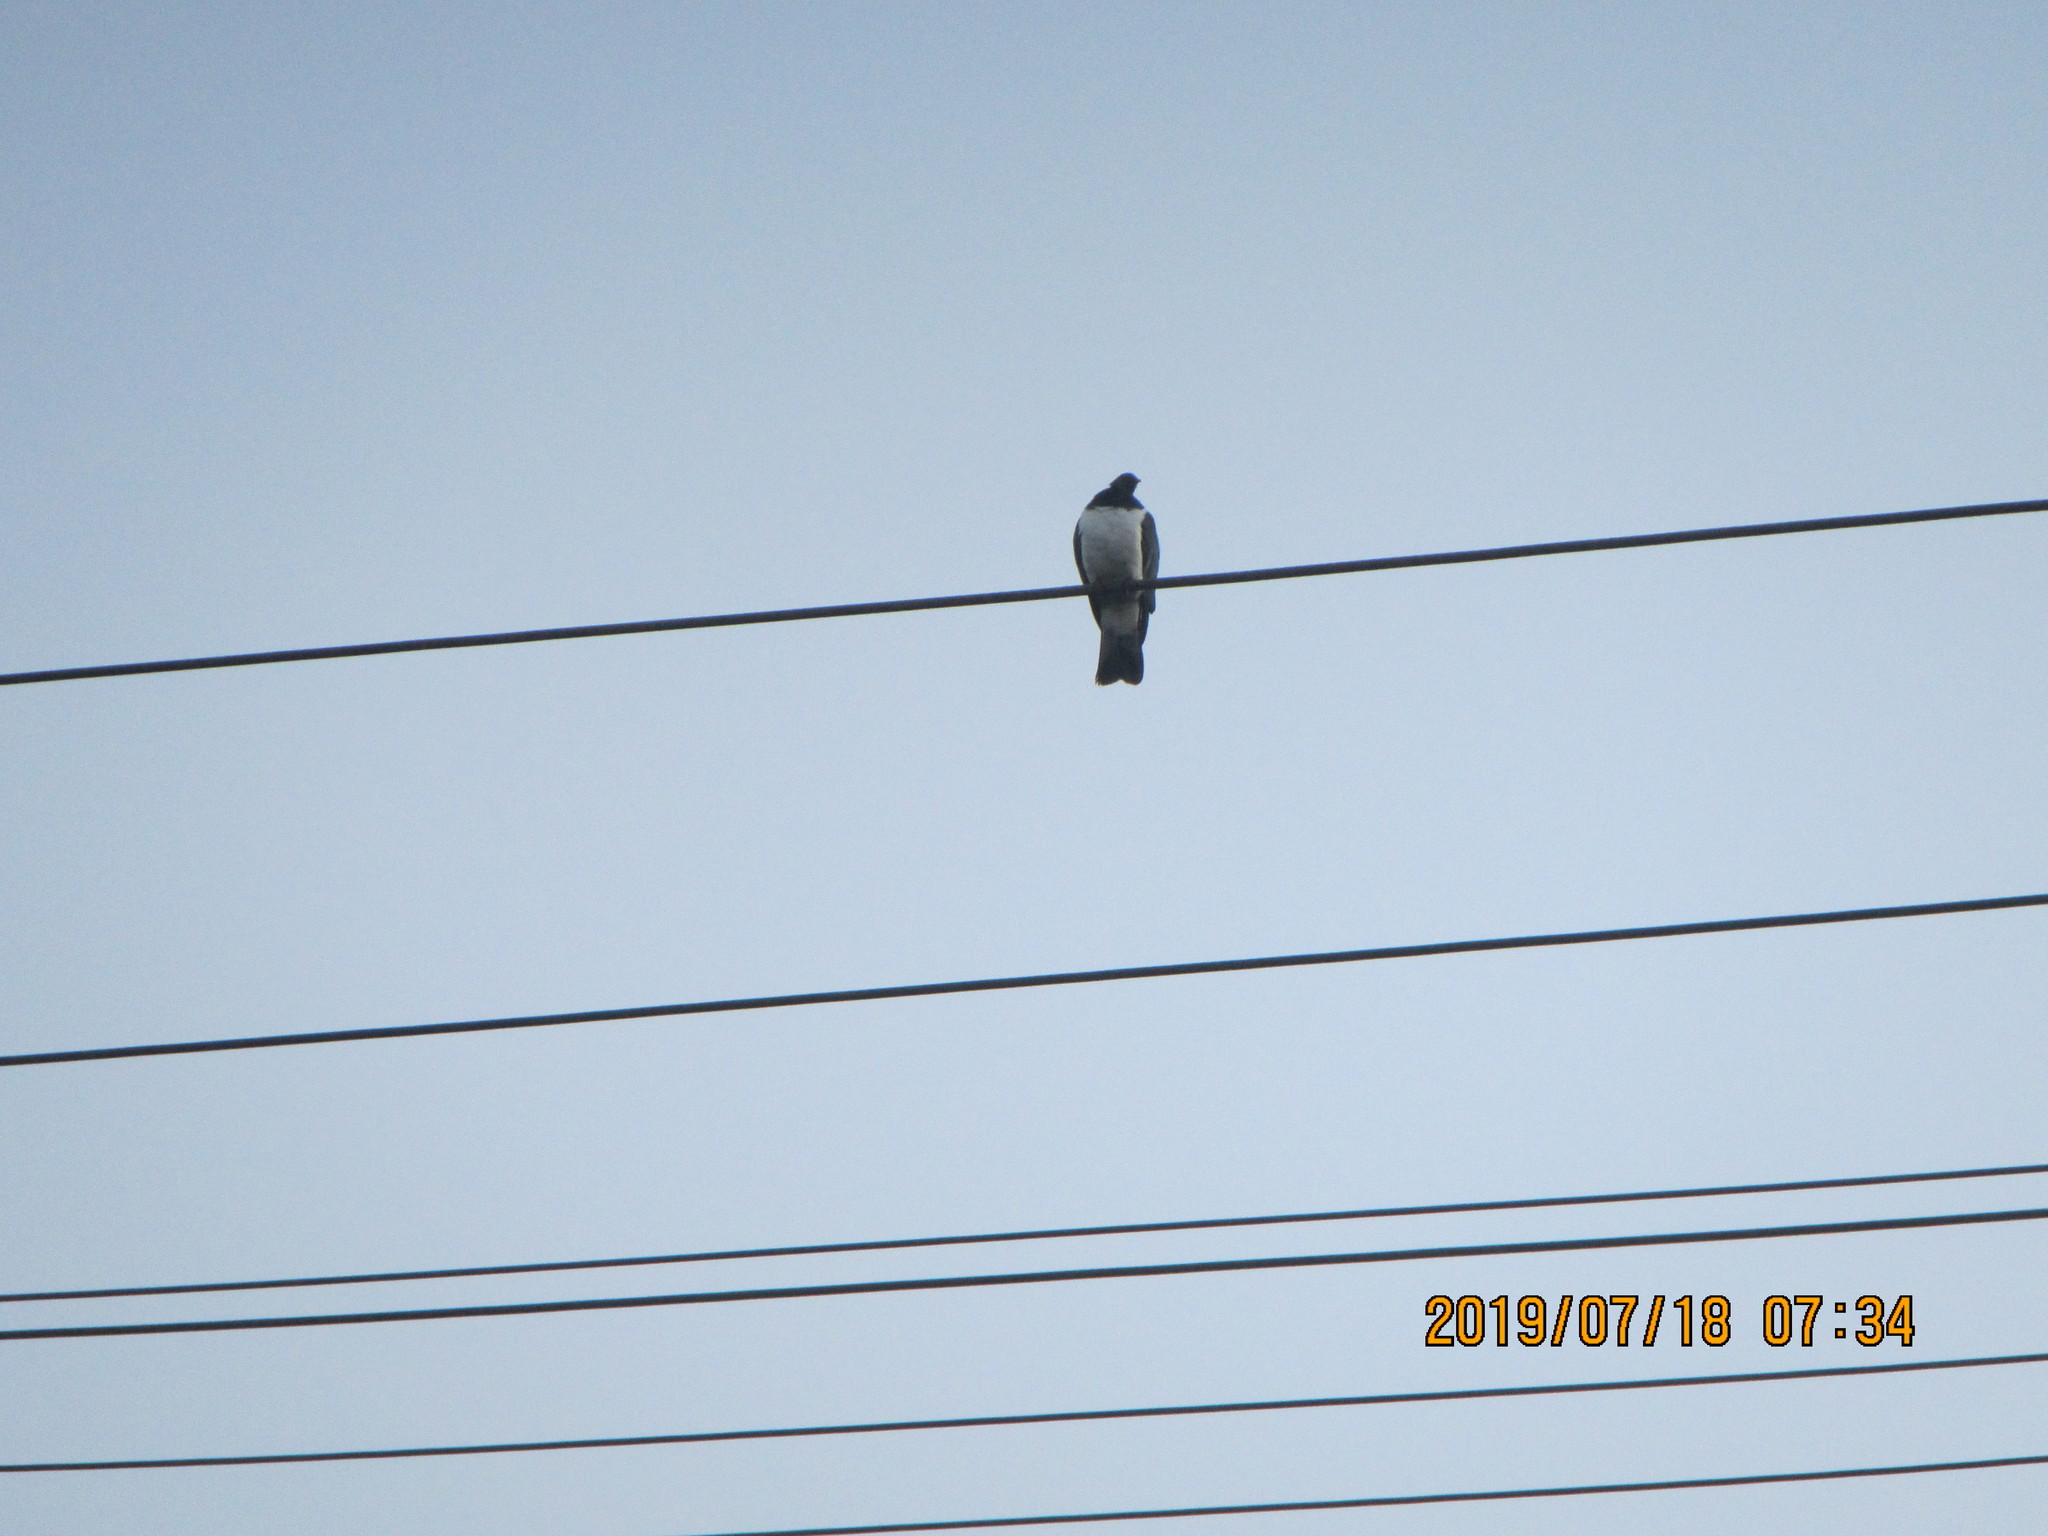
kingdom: Animalia
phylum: Chordata
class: Aves
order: Columbiformes
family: Columbidae
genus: Hemiphaga
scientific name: Hemiphaga novaeseelandiae
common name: New zealand pigeon
